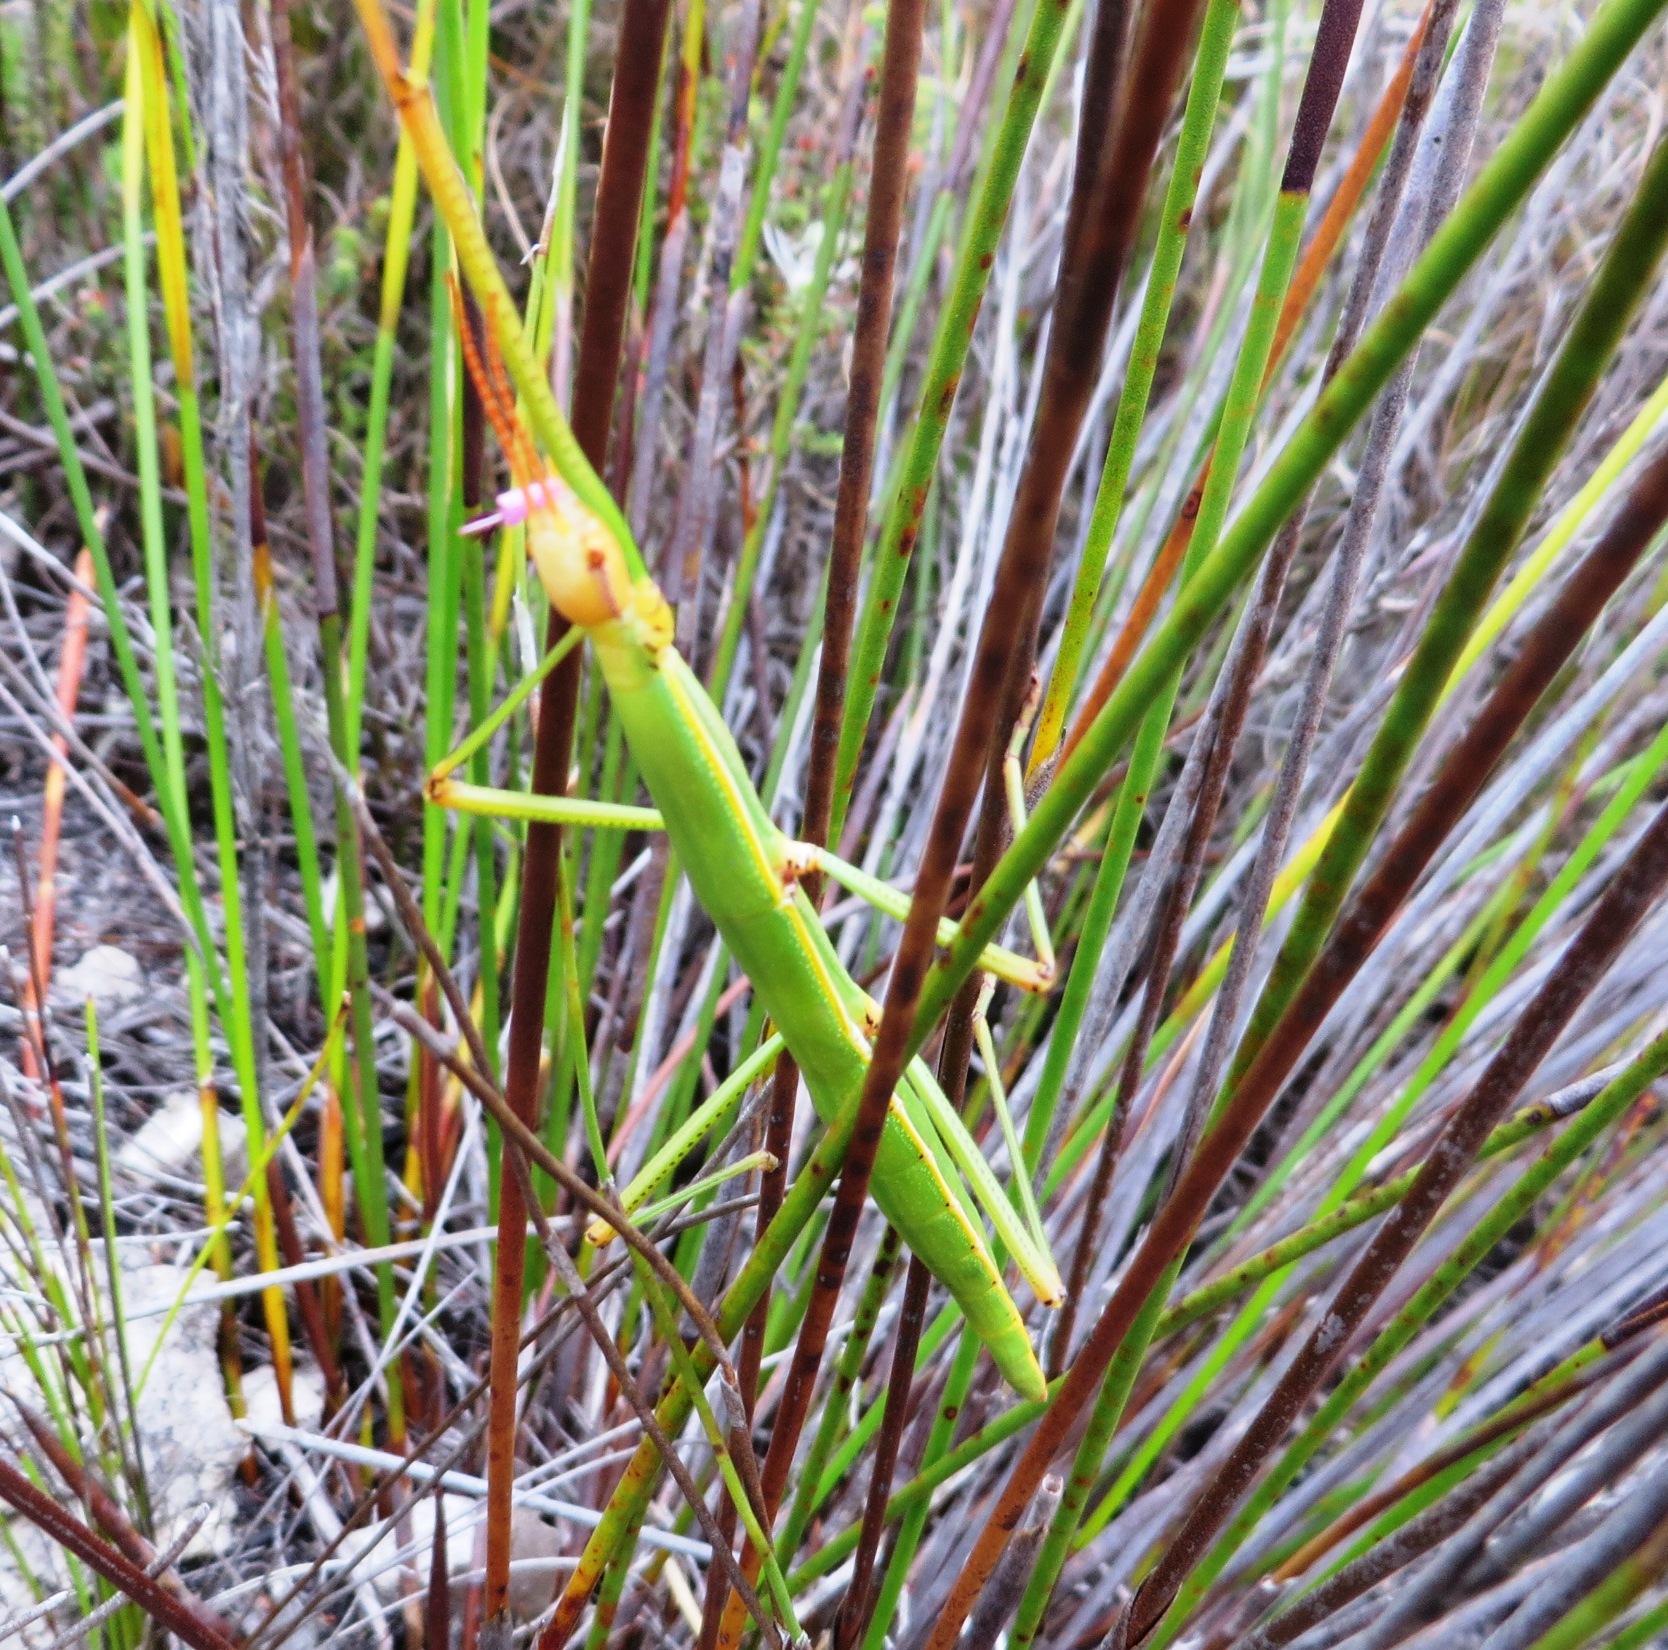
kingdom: Animalia
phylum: Arthropoda
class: Insecta
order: Phasmida
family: Bacillidae
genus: Macynia
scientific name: Macynia labiata
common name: Thunberg's stick insect
